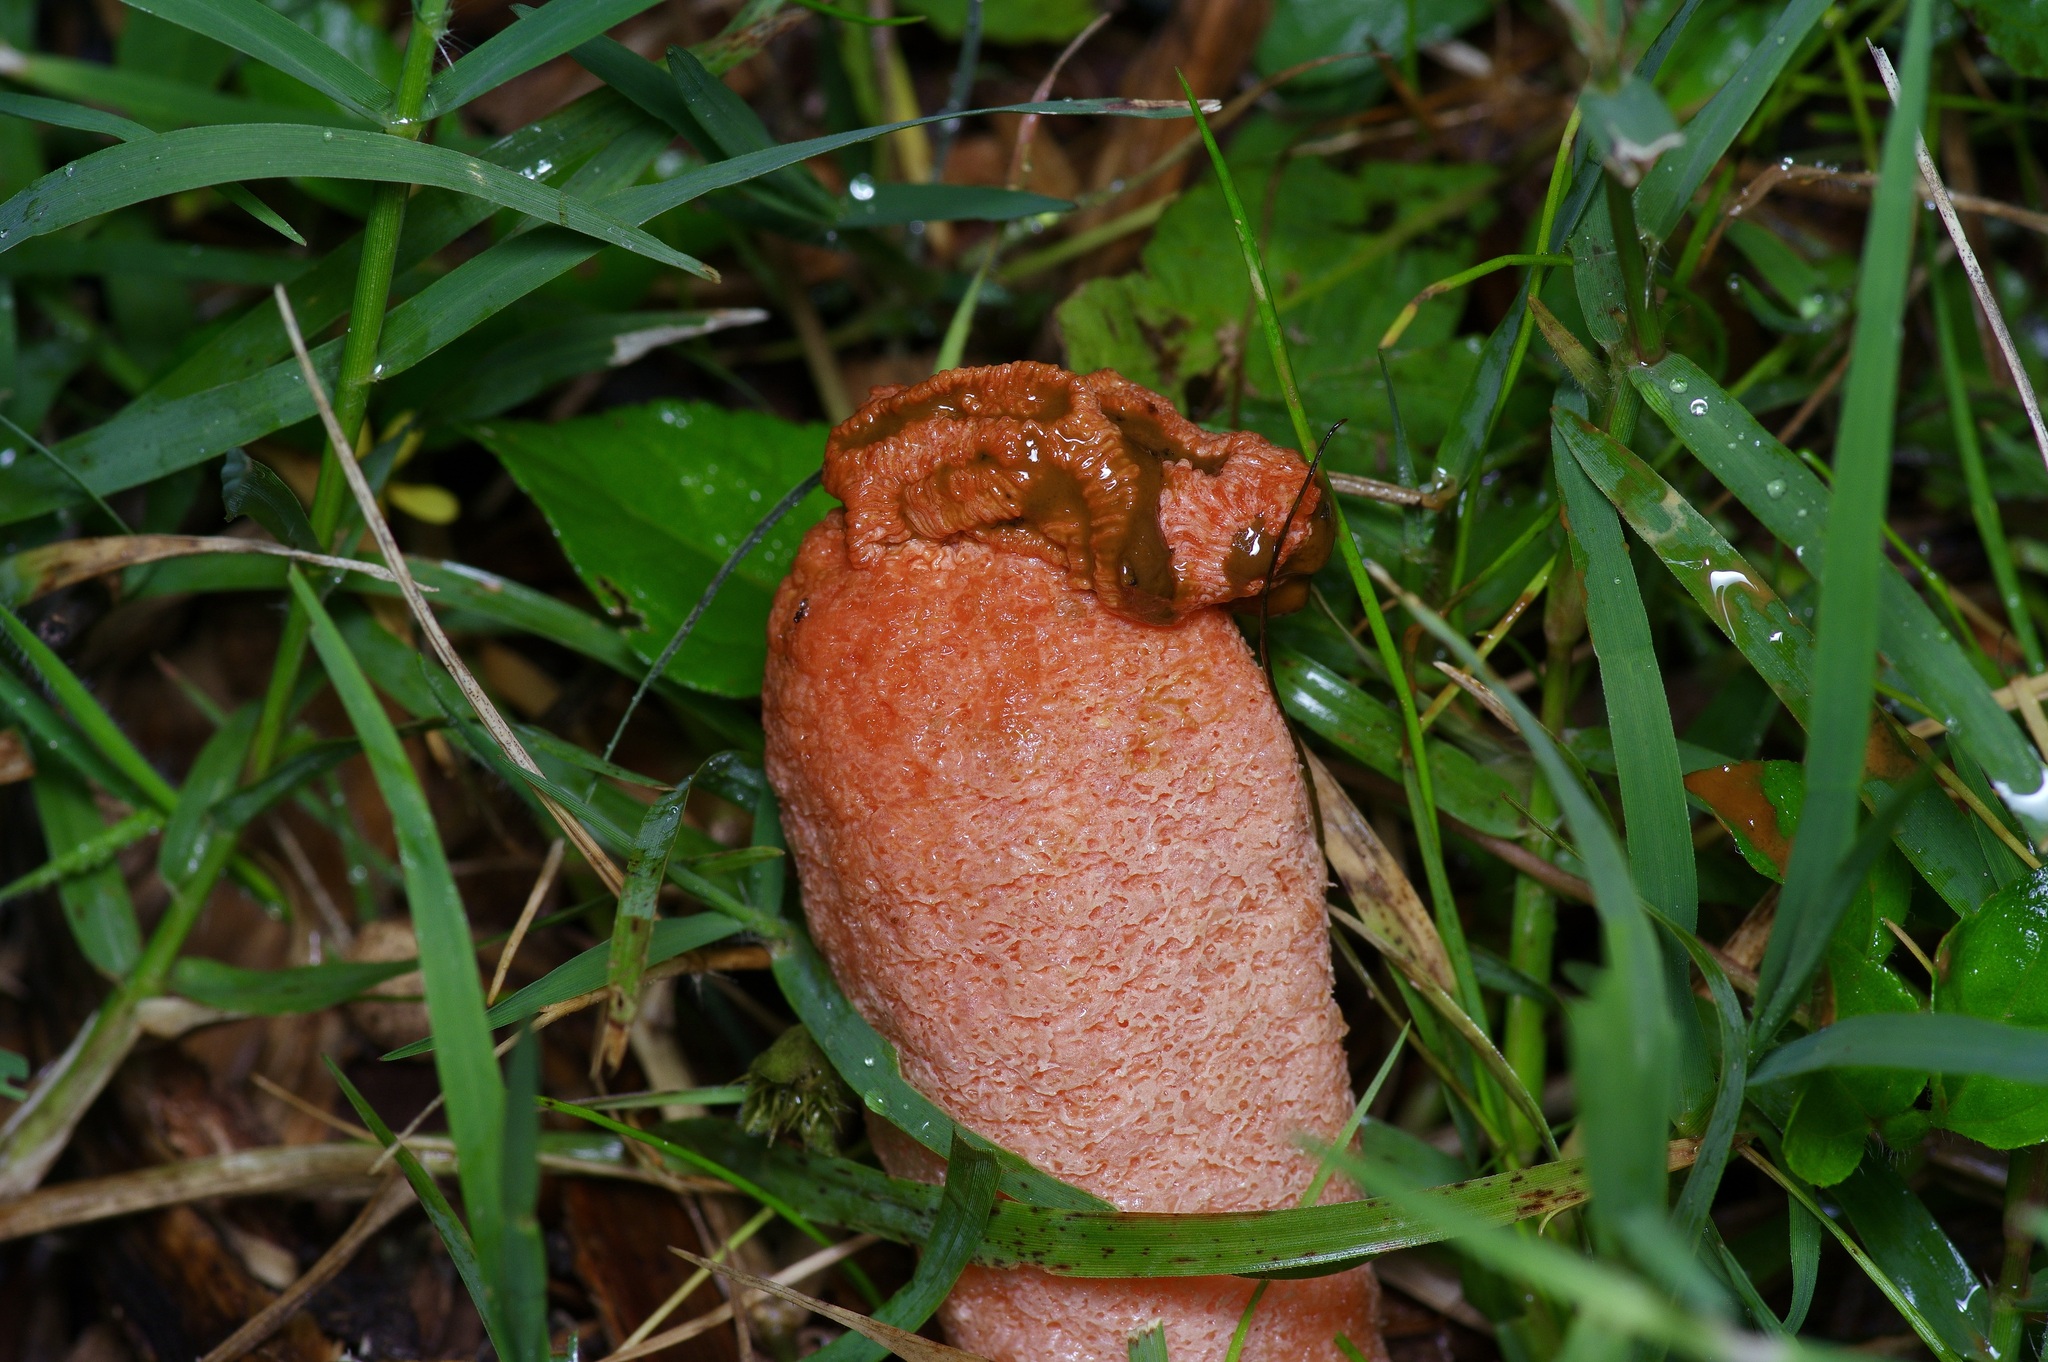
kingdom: Fungi
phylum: Basidiomycota
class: Agaricomycetes
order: Phallales
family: Phallaceae
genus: Lysurus
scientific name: Lysurus periphragmoides
